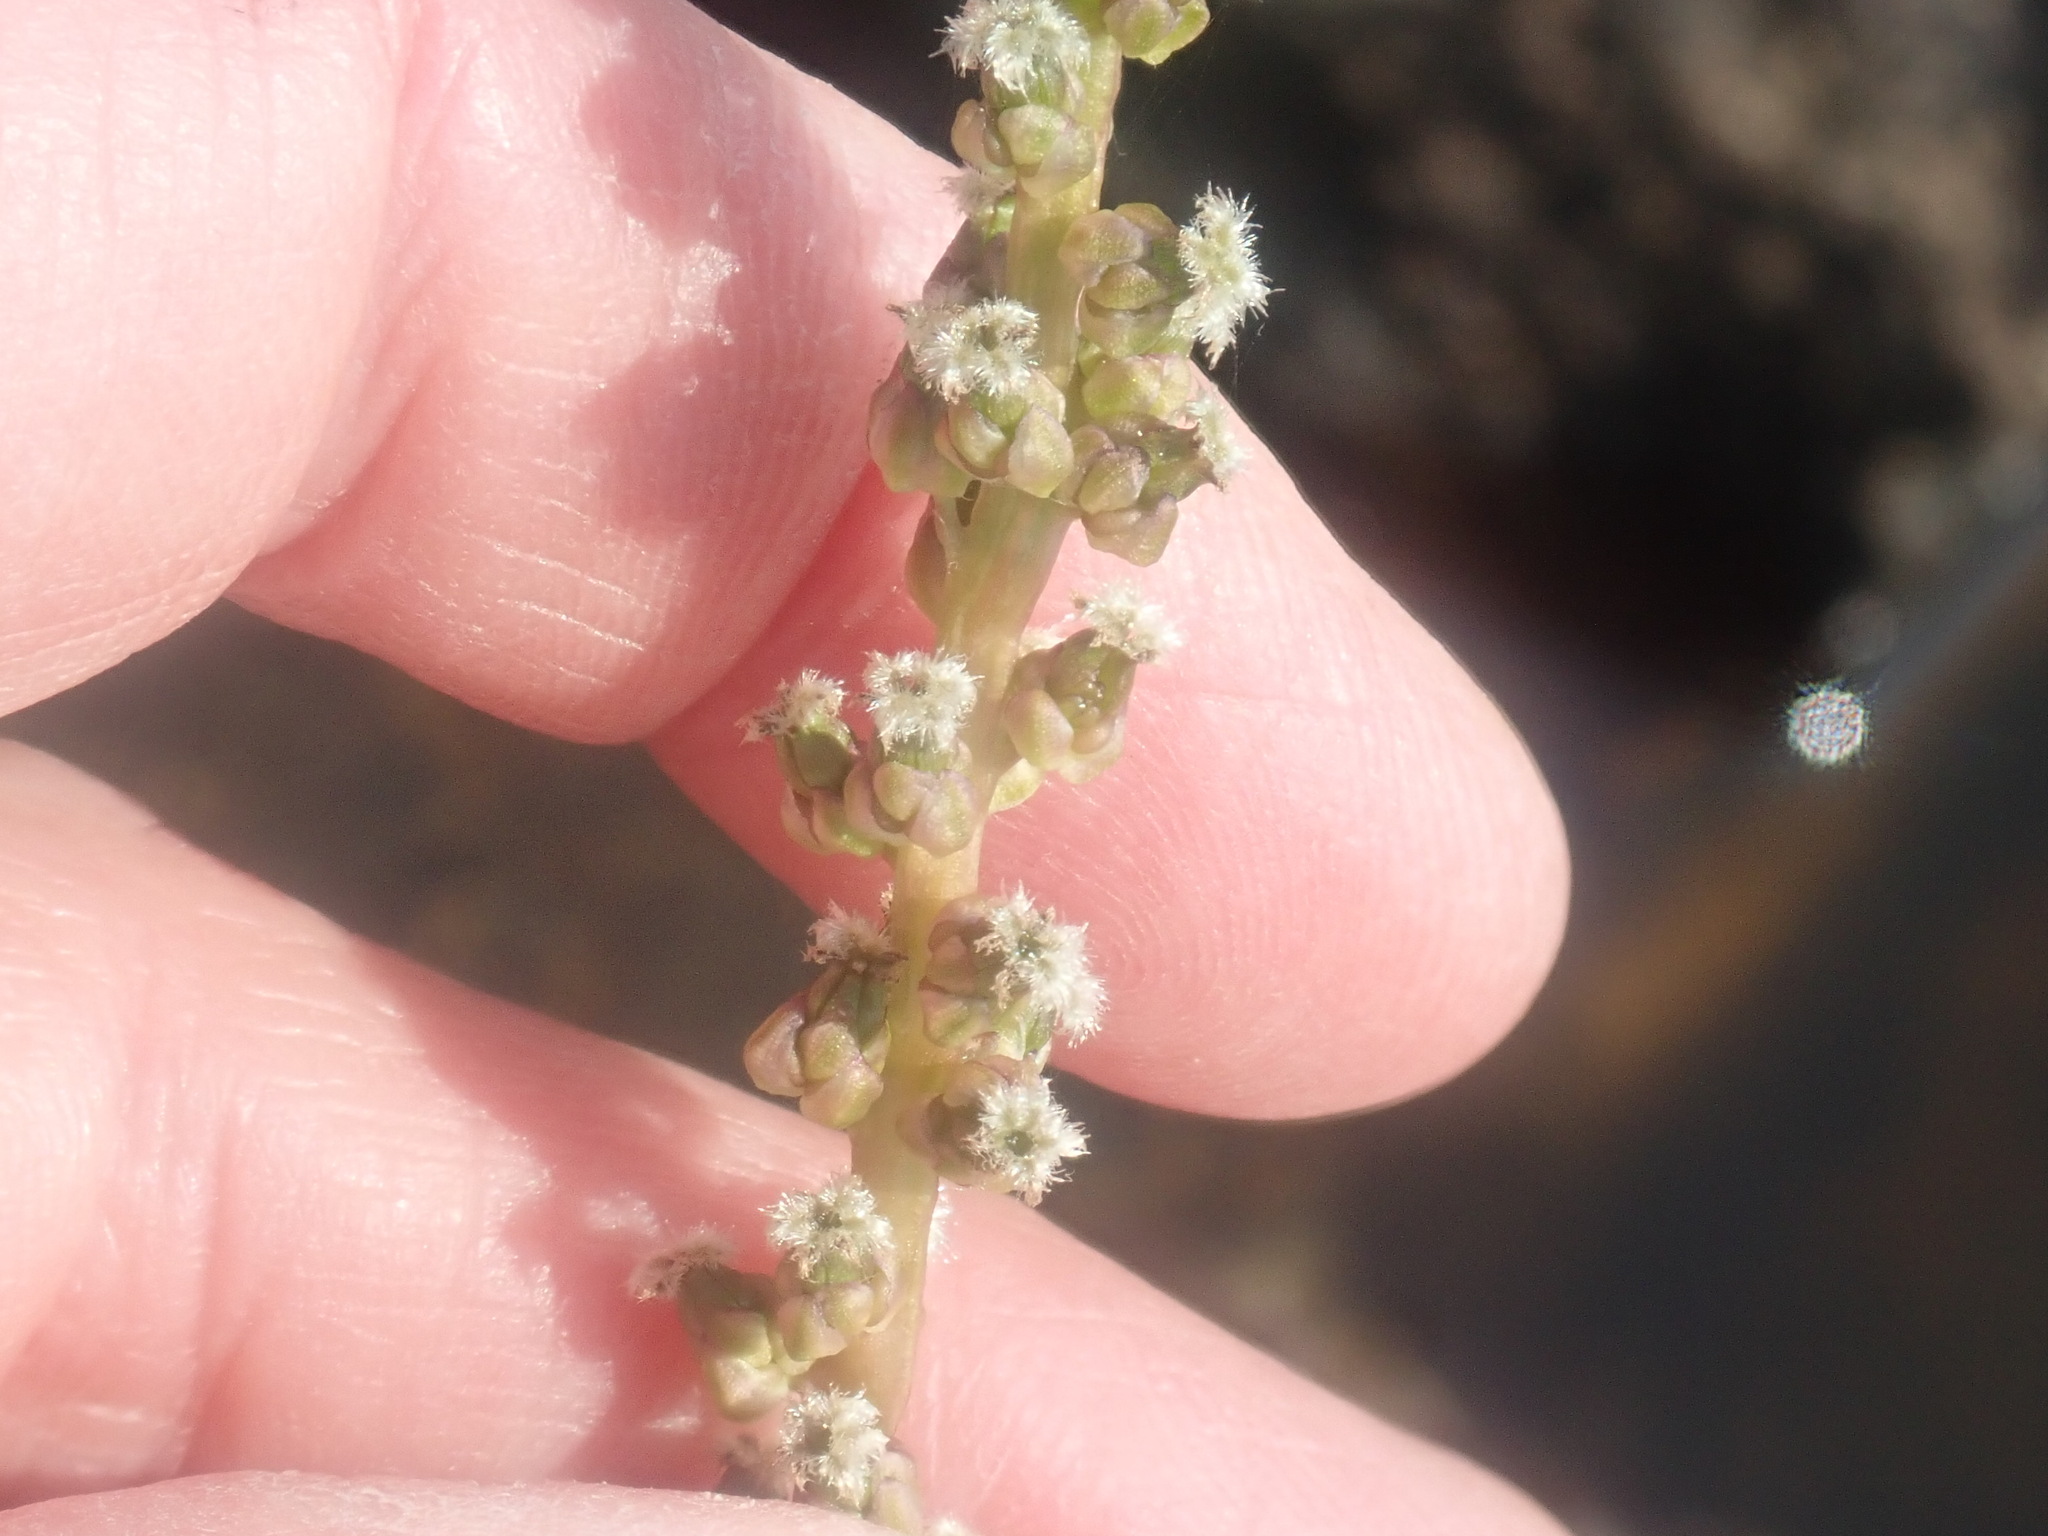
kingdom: Plantae
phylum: Tracheophyta
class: Liliopsida
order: Alismatales
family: Juncaginaceae
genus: Triglochin
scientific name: Triglochin maritima
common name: Sea arrowgrass
